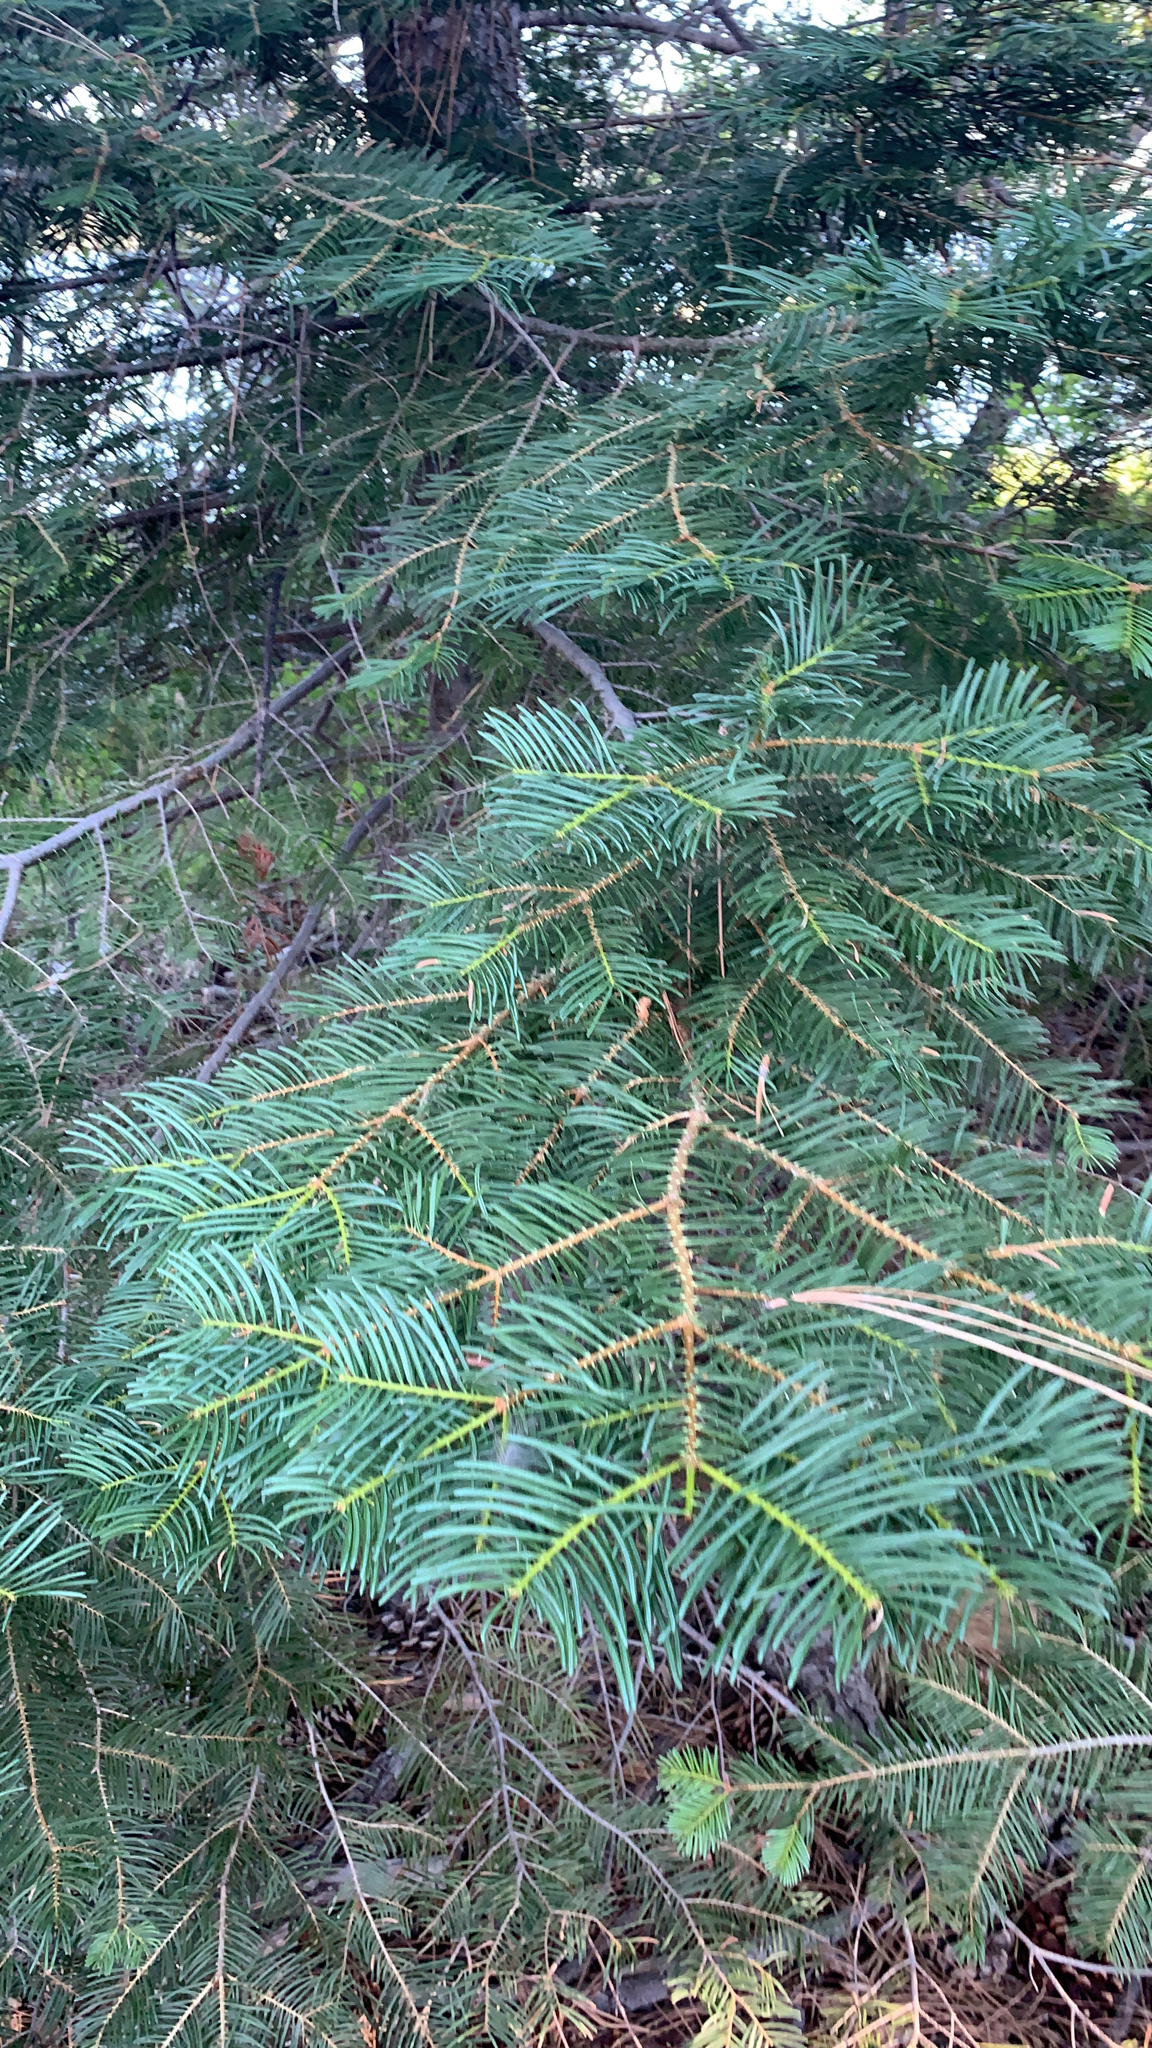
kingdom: Plantae
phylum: Tracheophyta
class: Pinopsida
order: Pinales
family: Pinaceae
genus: Abies
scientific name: Abies concolor
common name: Colorado fir
